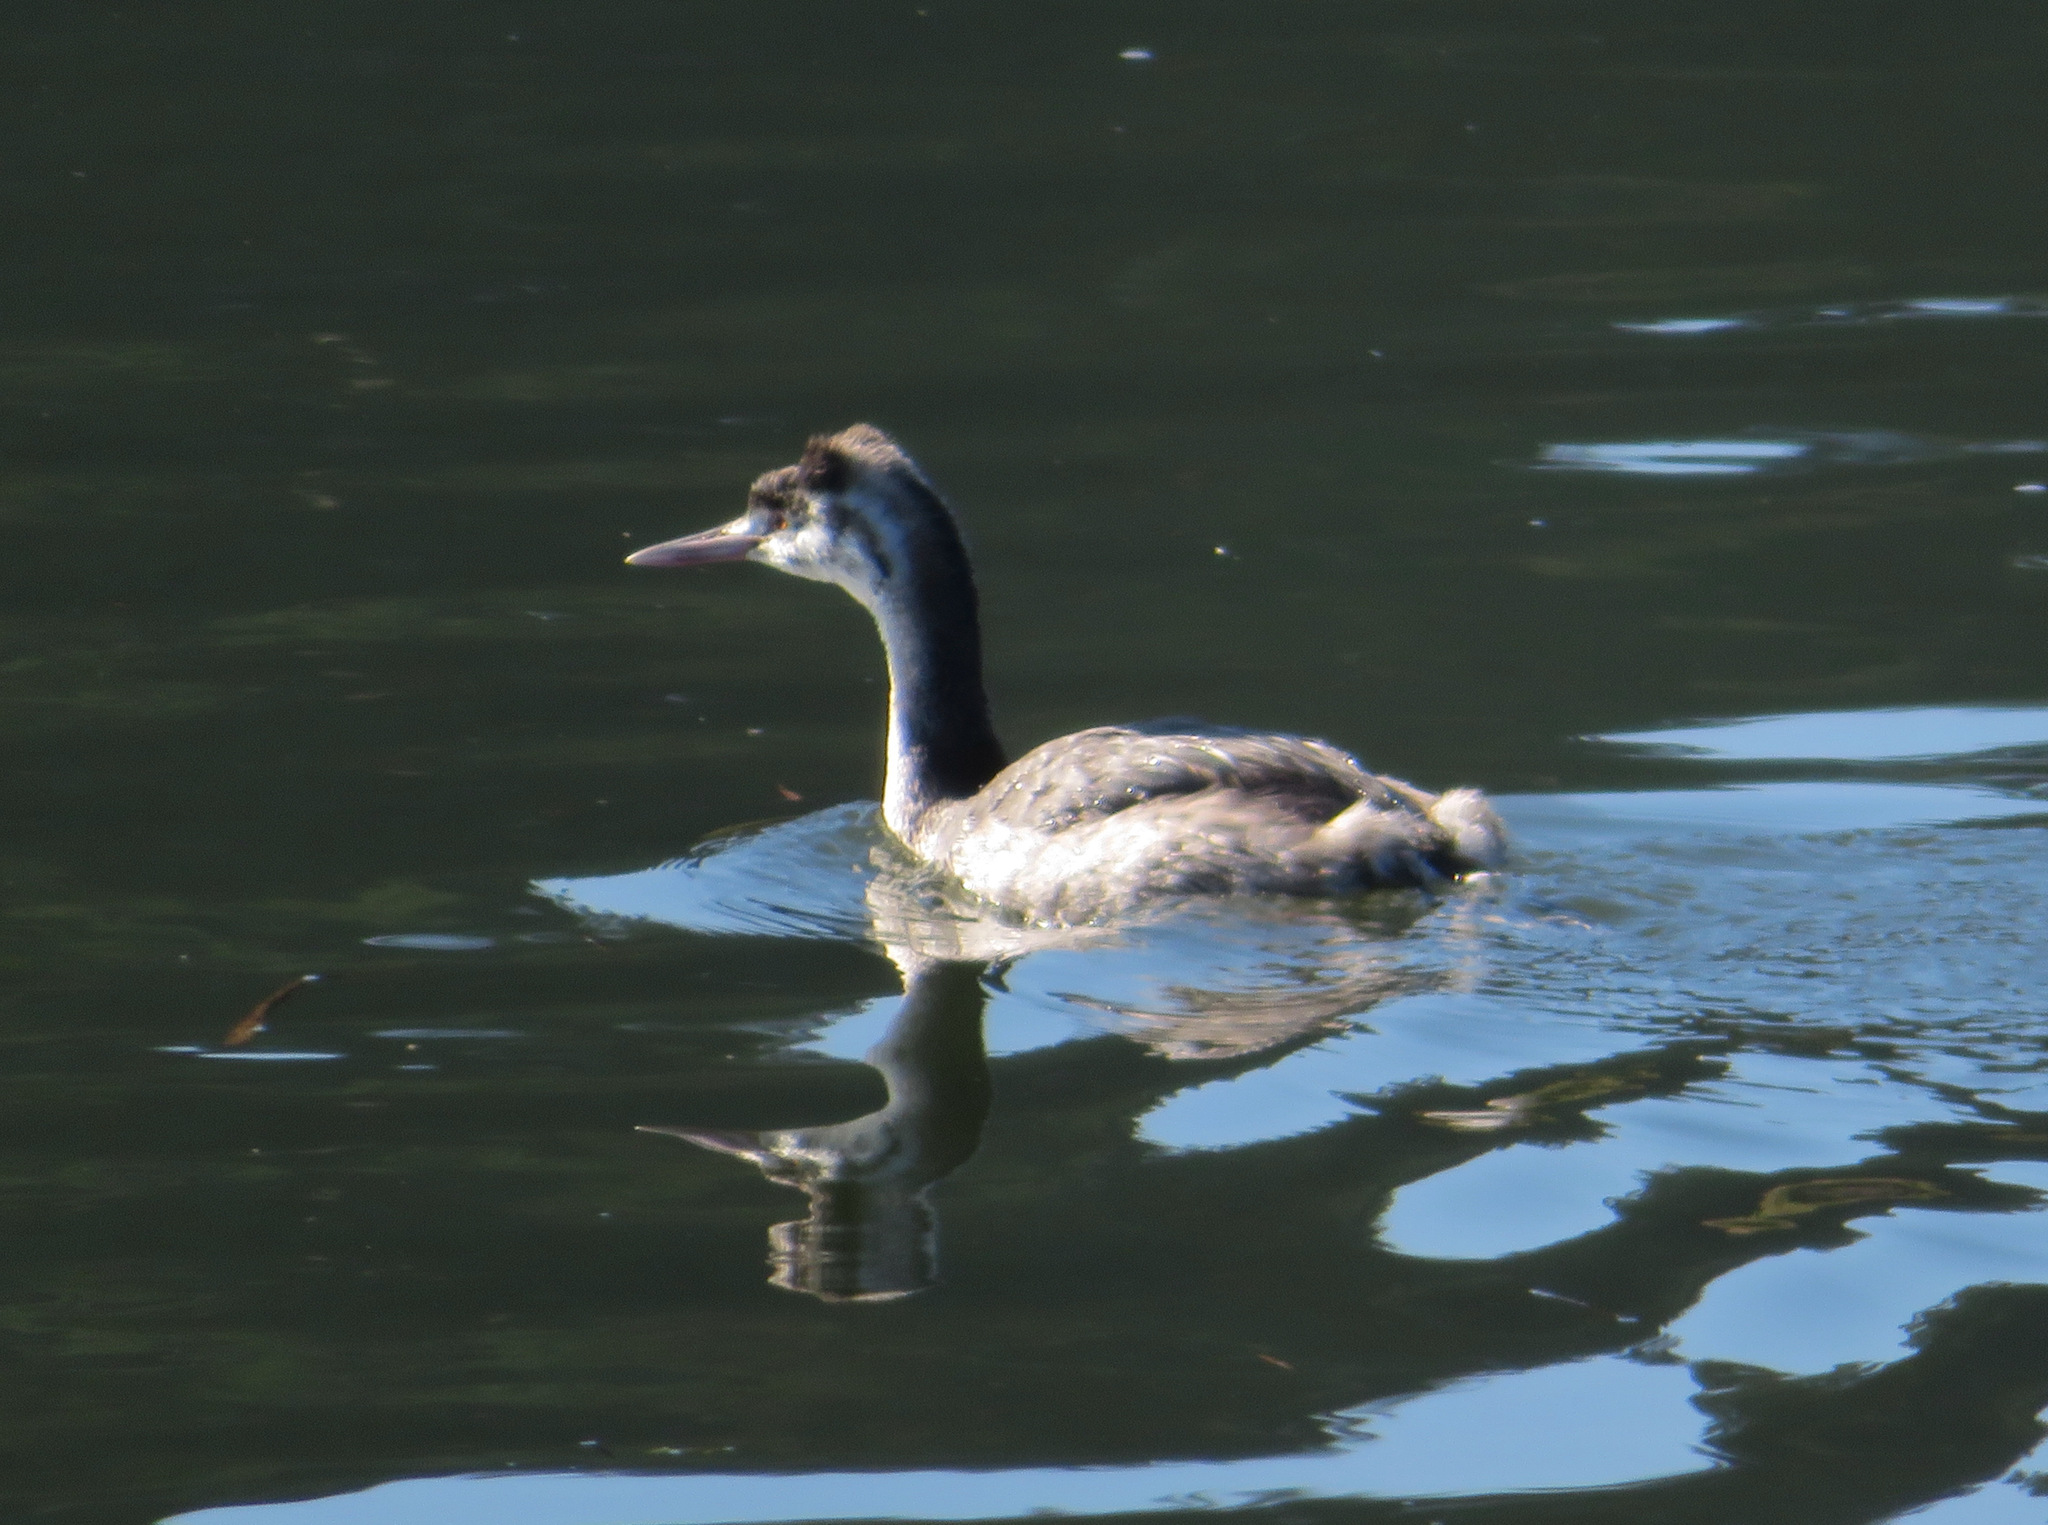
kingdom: Animalia
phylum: Chordata
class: Aves
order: Podicipediformes
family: Podicipedidae
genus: Podiceps
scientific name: Podiceps cristatus
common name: Great crested grebe
